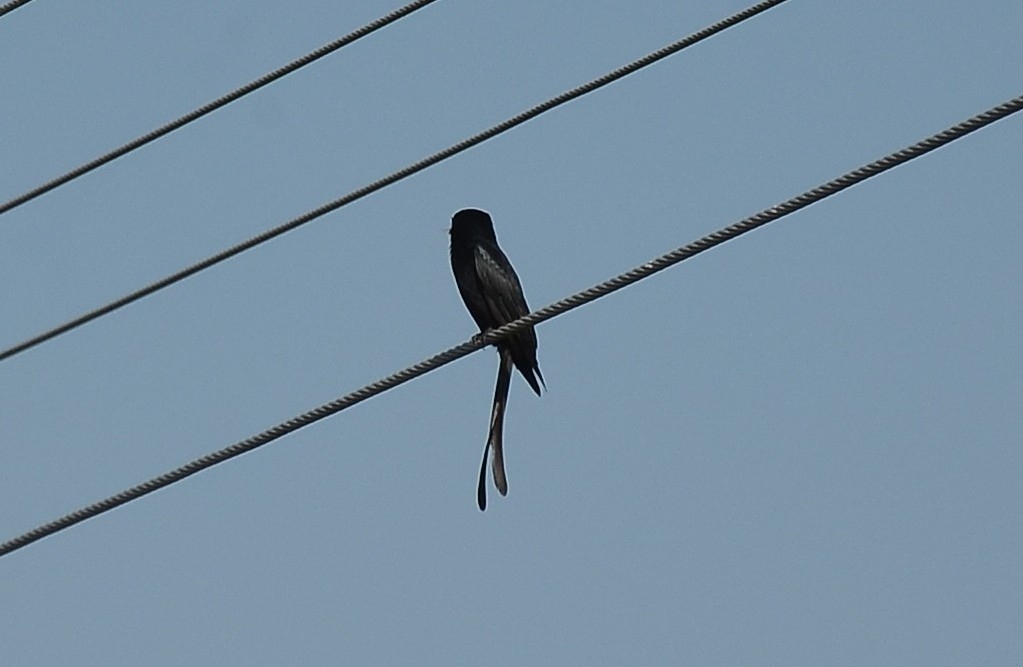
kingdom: Animalia
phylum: Chordata
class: Aves
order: Passeriformes
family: Dicruridae
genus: Dicrurus
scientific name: Dicrurus macrocercus
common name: Black drongo
